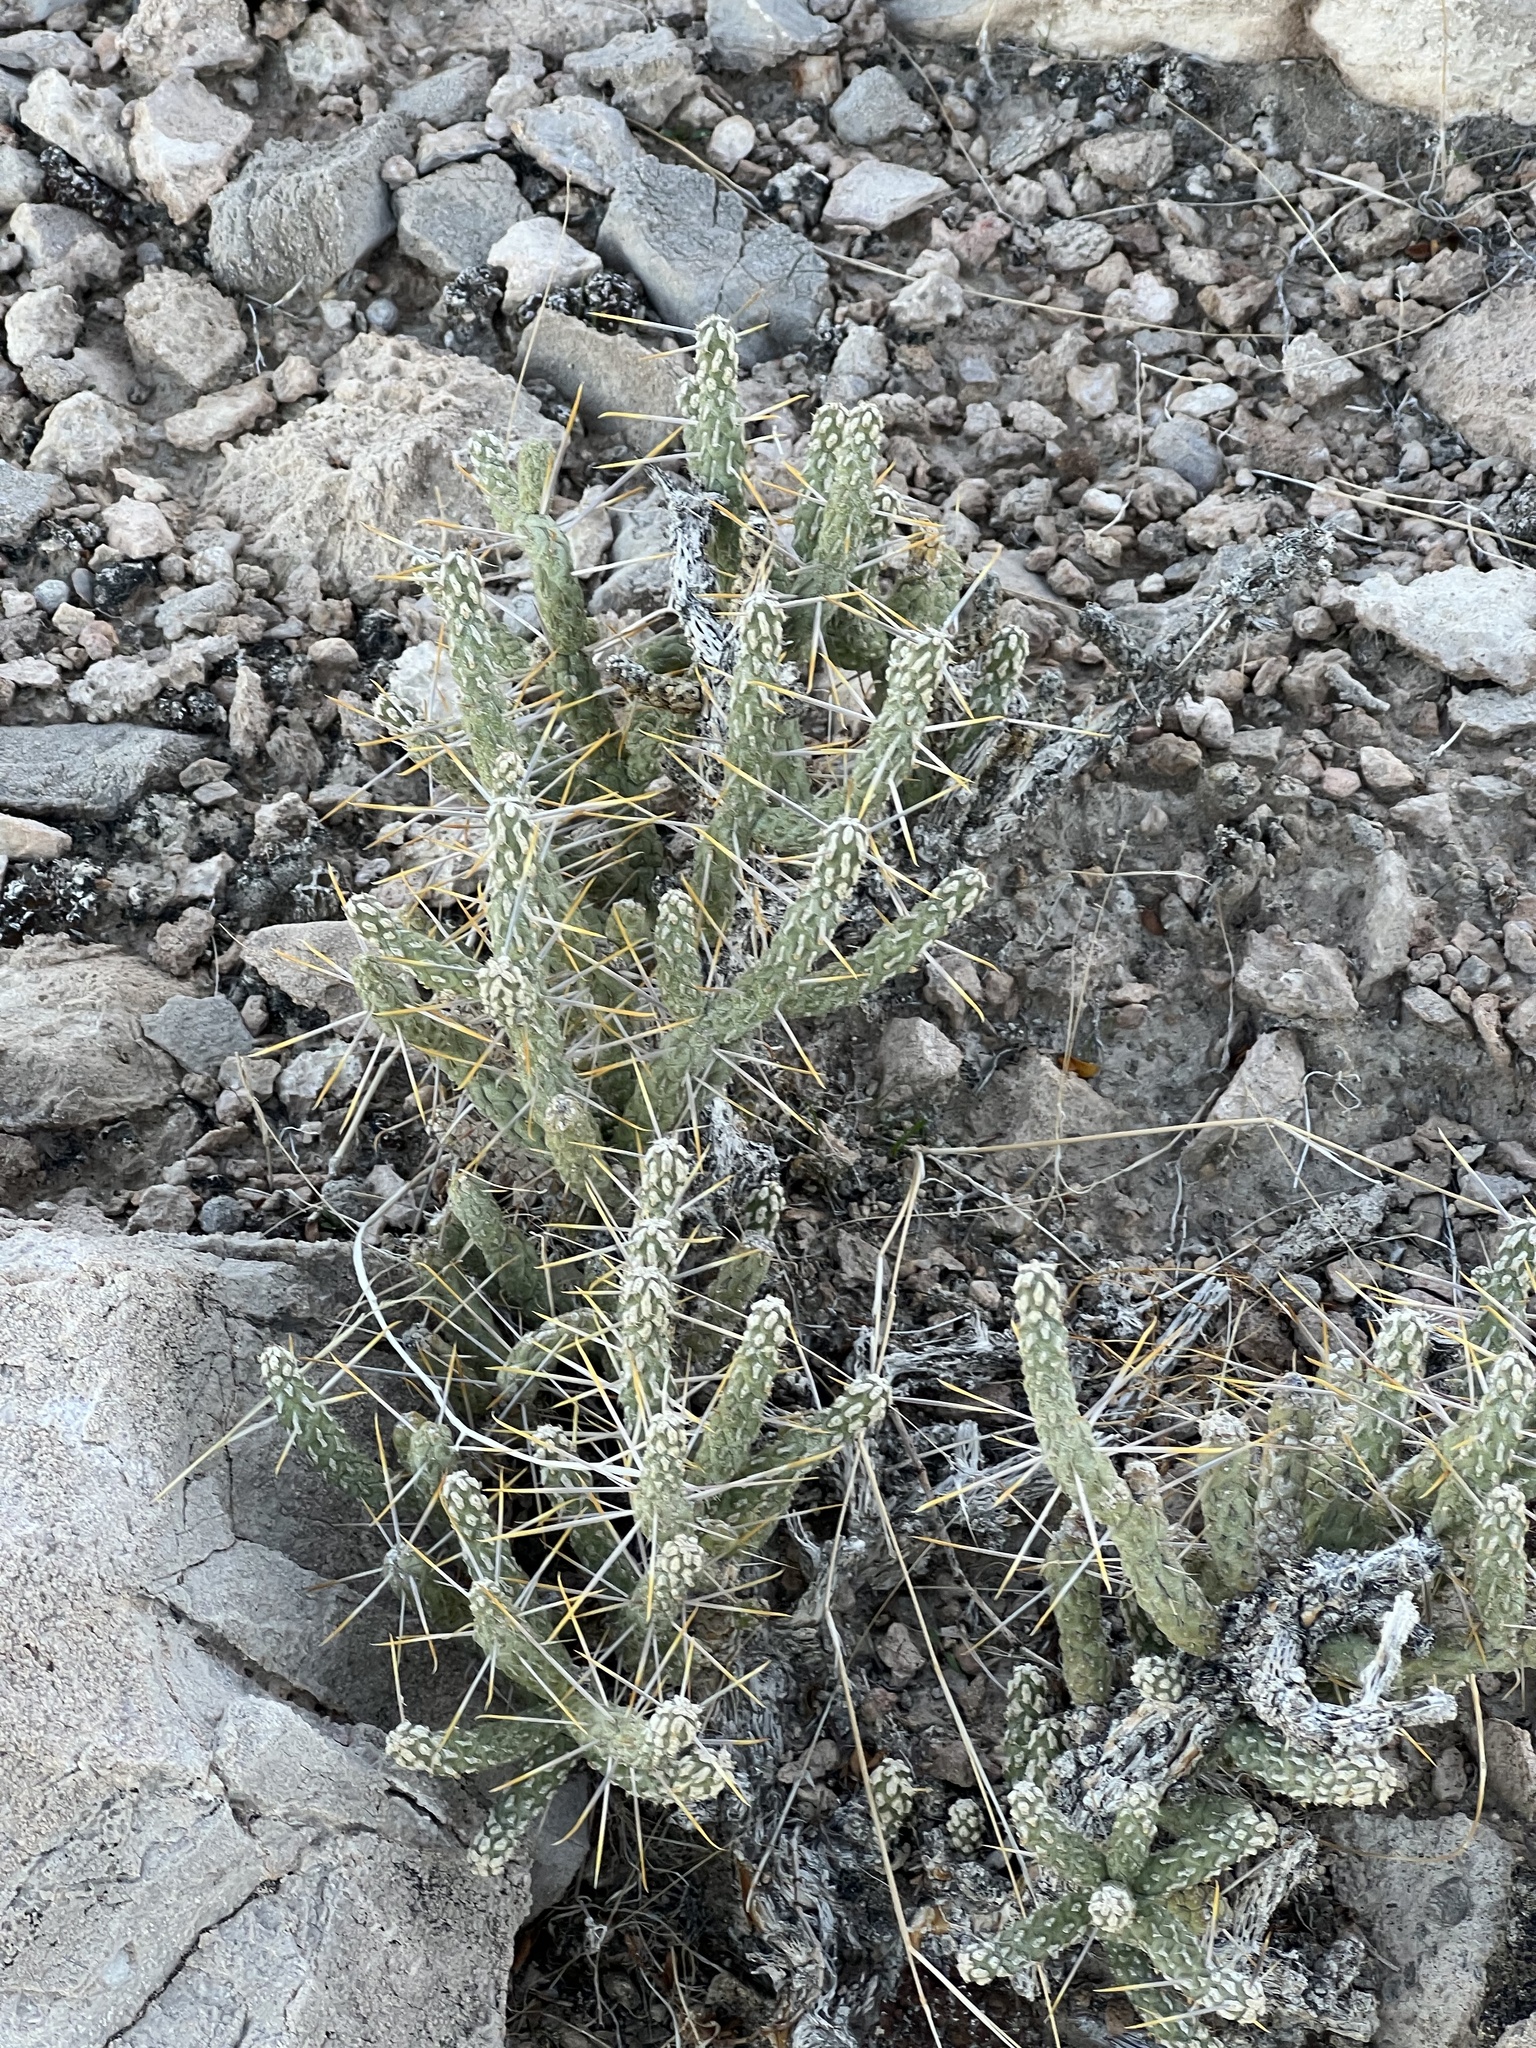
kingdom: Plantae
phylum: Tracheophyta
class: Magnoliopsida
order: Caryophyllales
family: Cactaceae
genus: Cylindropuntia
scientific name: Cylindropuntia ramosissima
